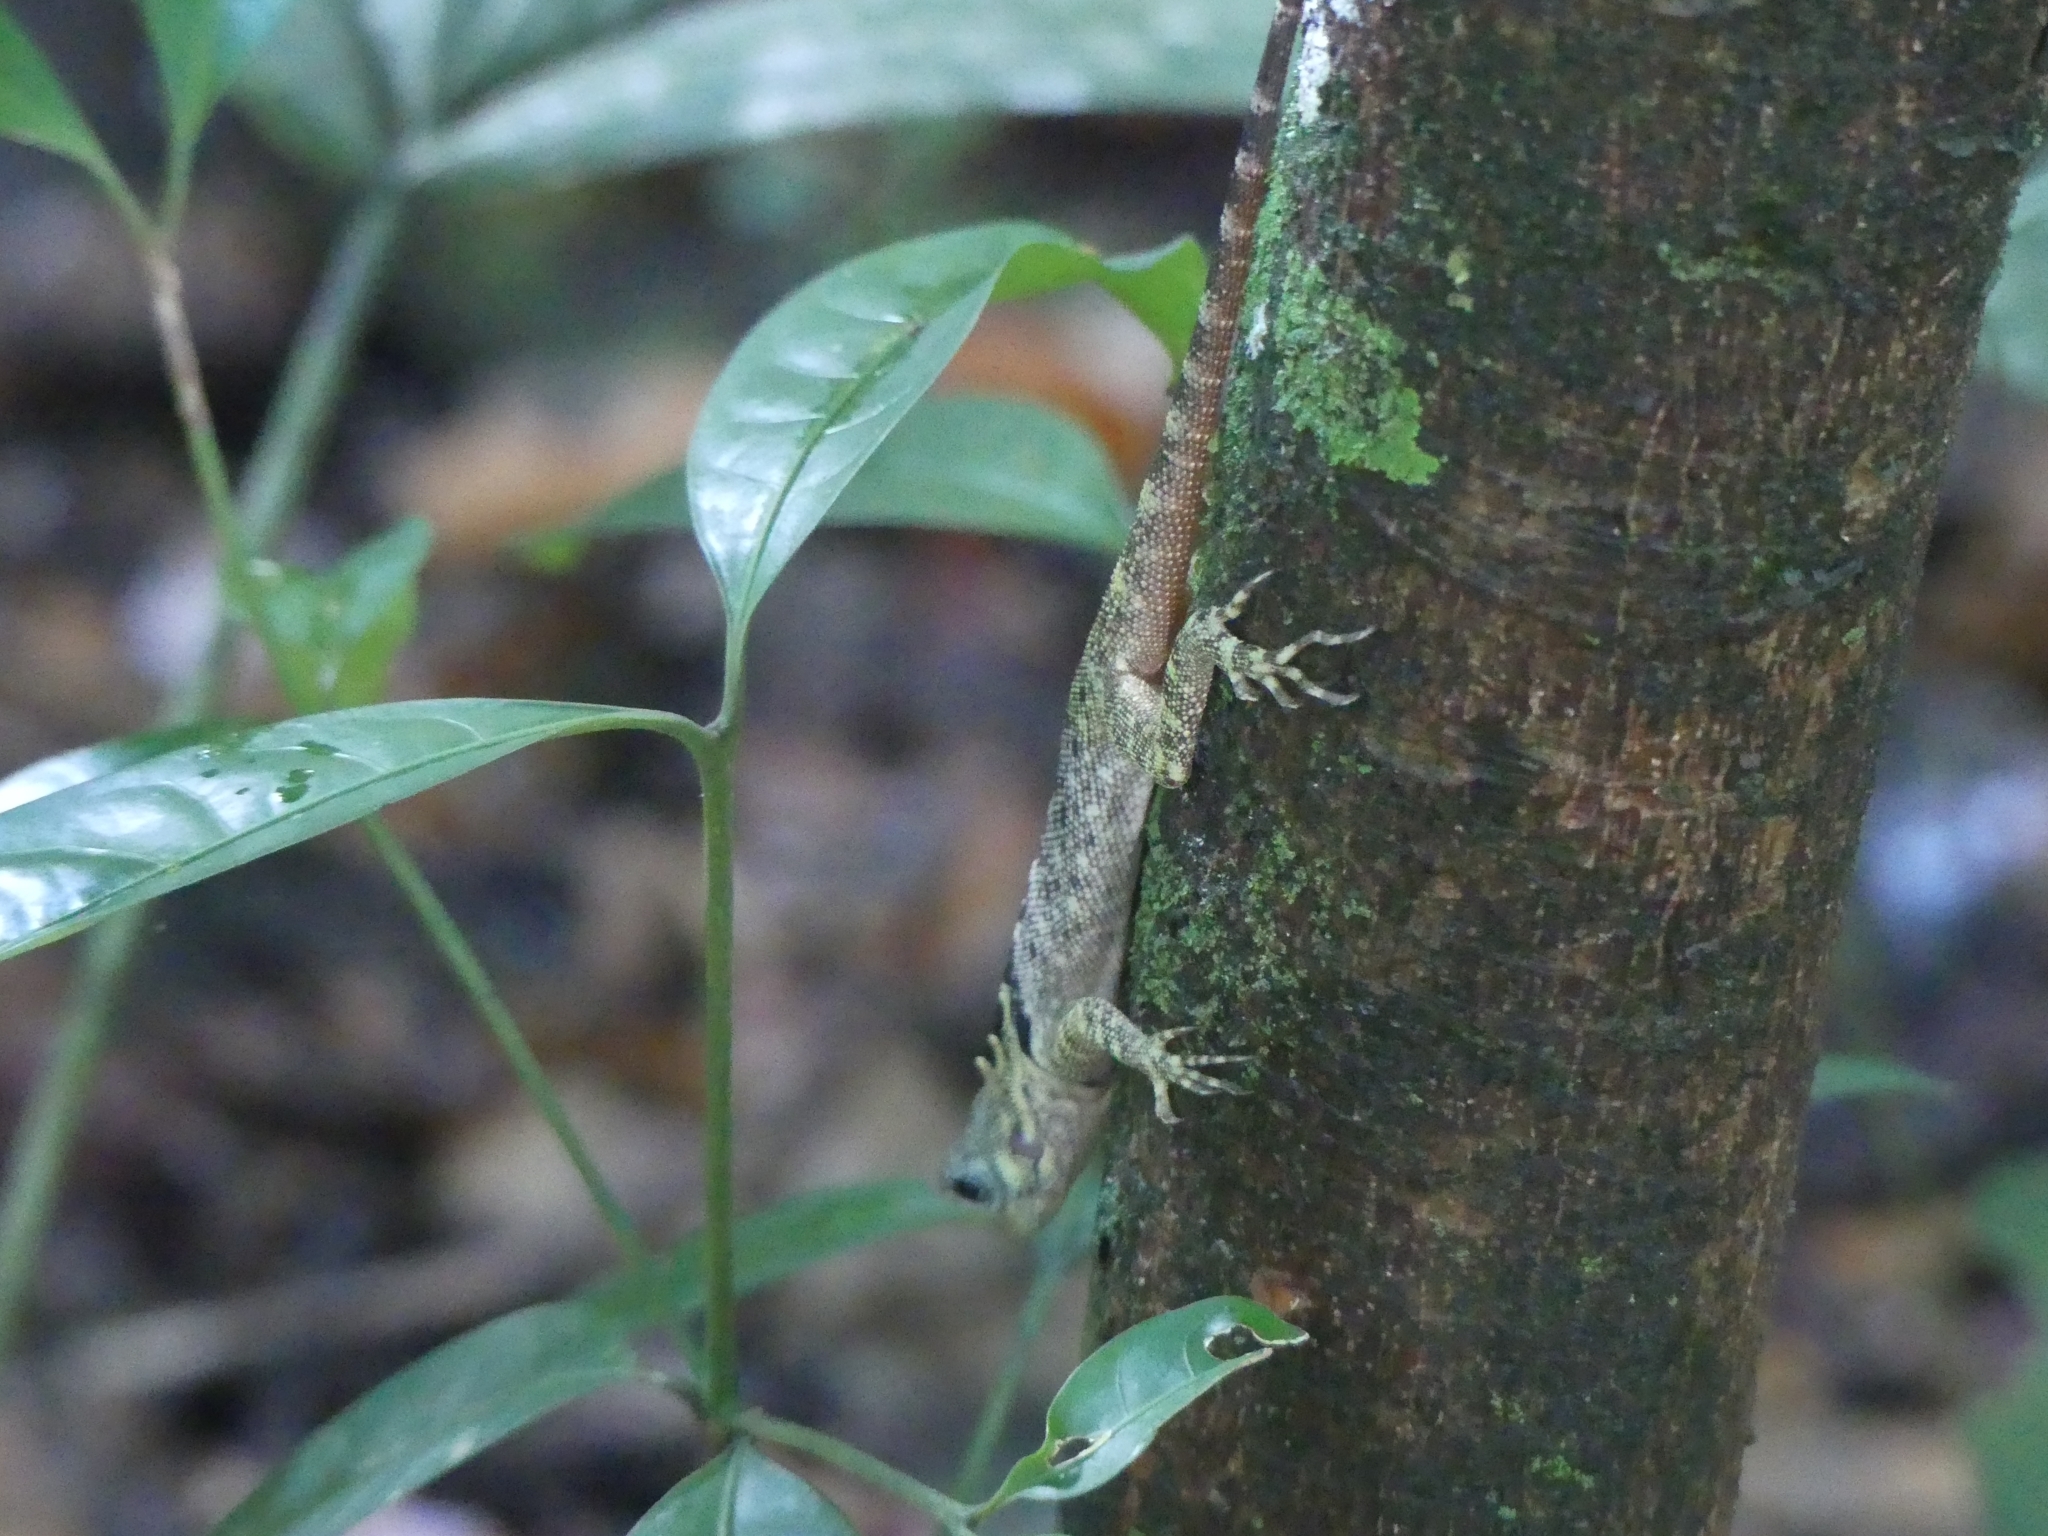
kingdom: Animalia
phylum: Chordata
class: Squamata
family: Tropiduridae
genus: Plica
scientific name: Plica umbra
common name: Harlequin racerunner
